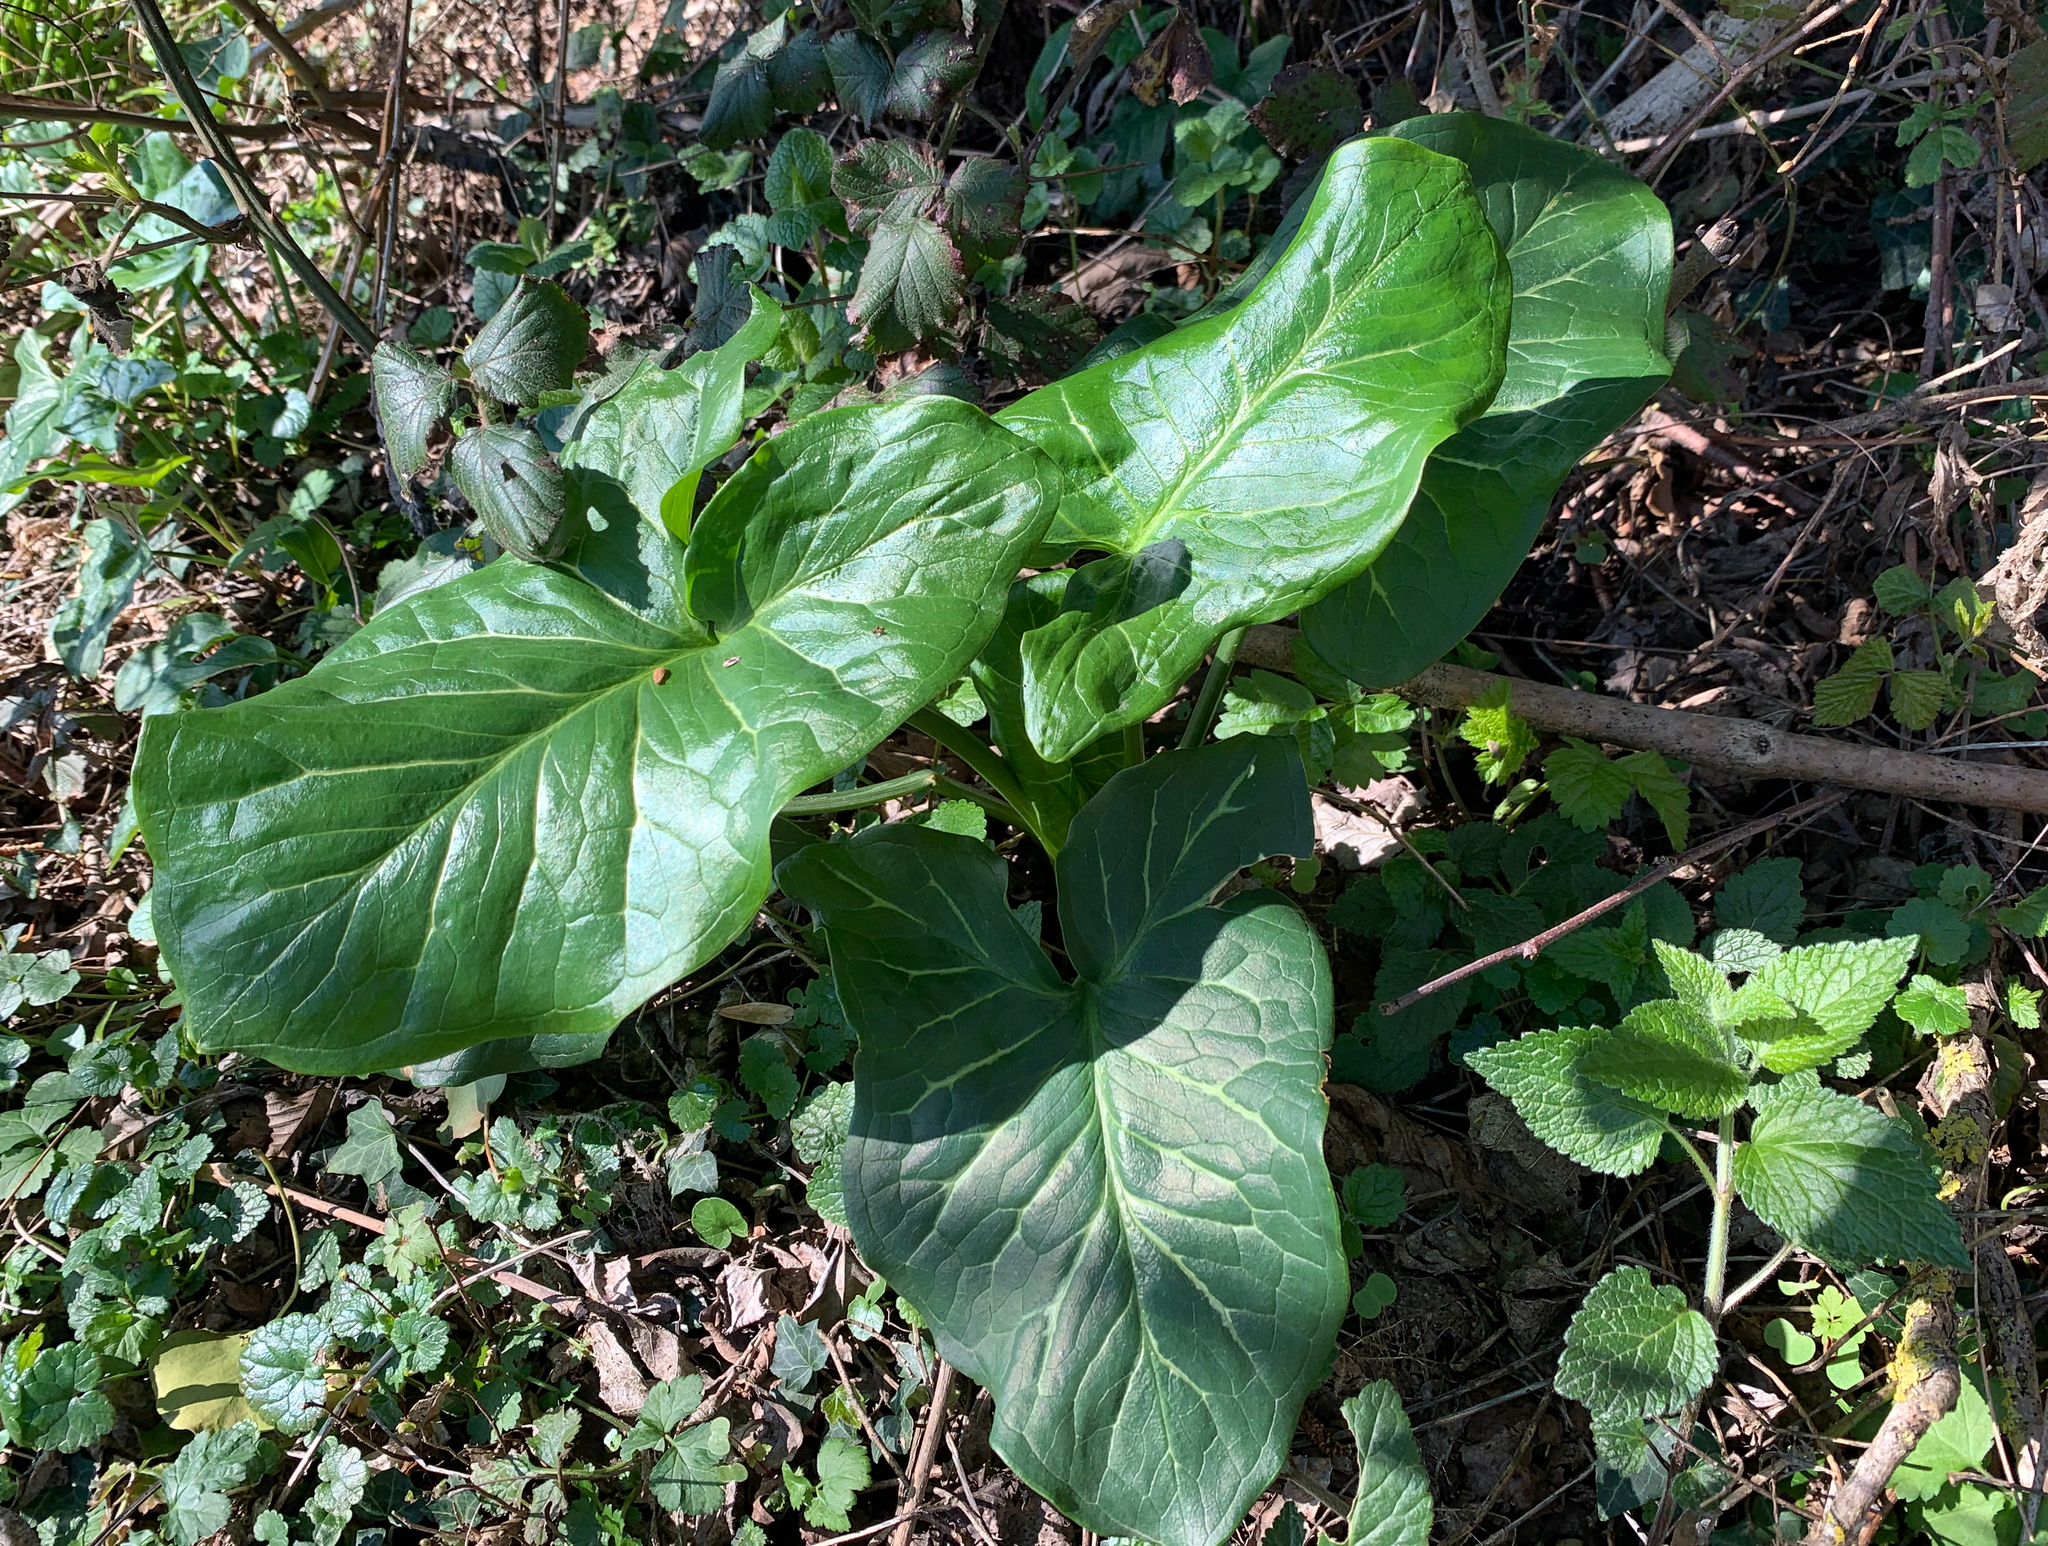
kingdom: Plantae
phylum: Tracheophyta
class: Liliopsida
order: Alismatales
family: Araceae
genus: Arum
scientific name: Arum italicum
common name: Italian lords-and-ladies
